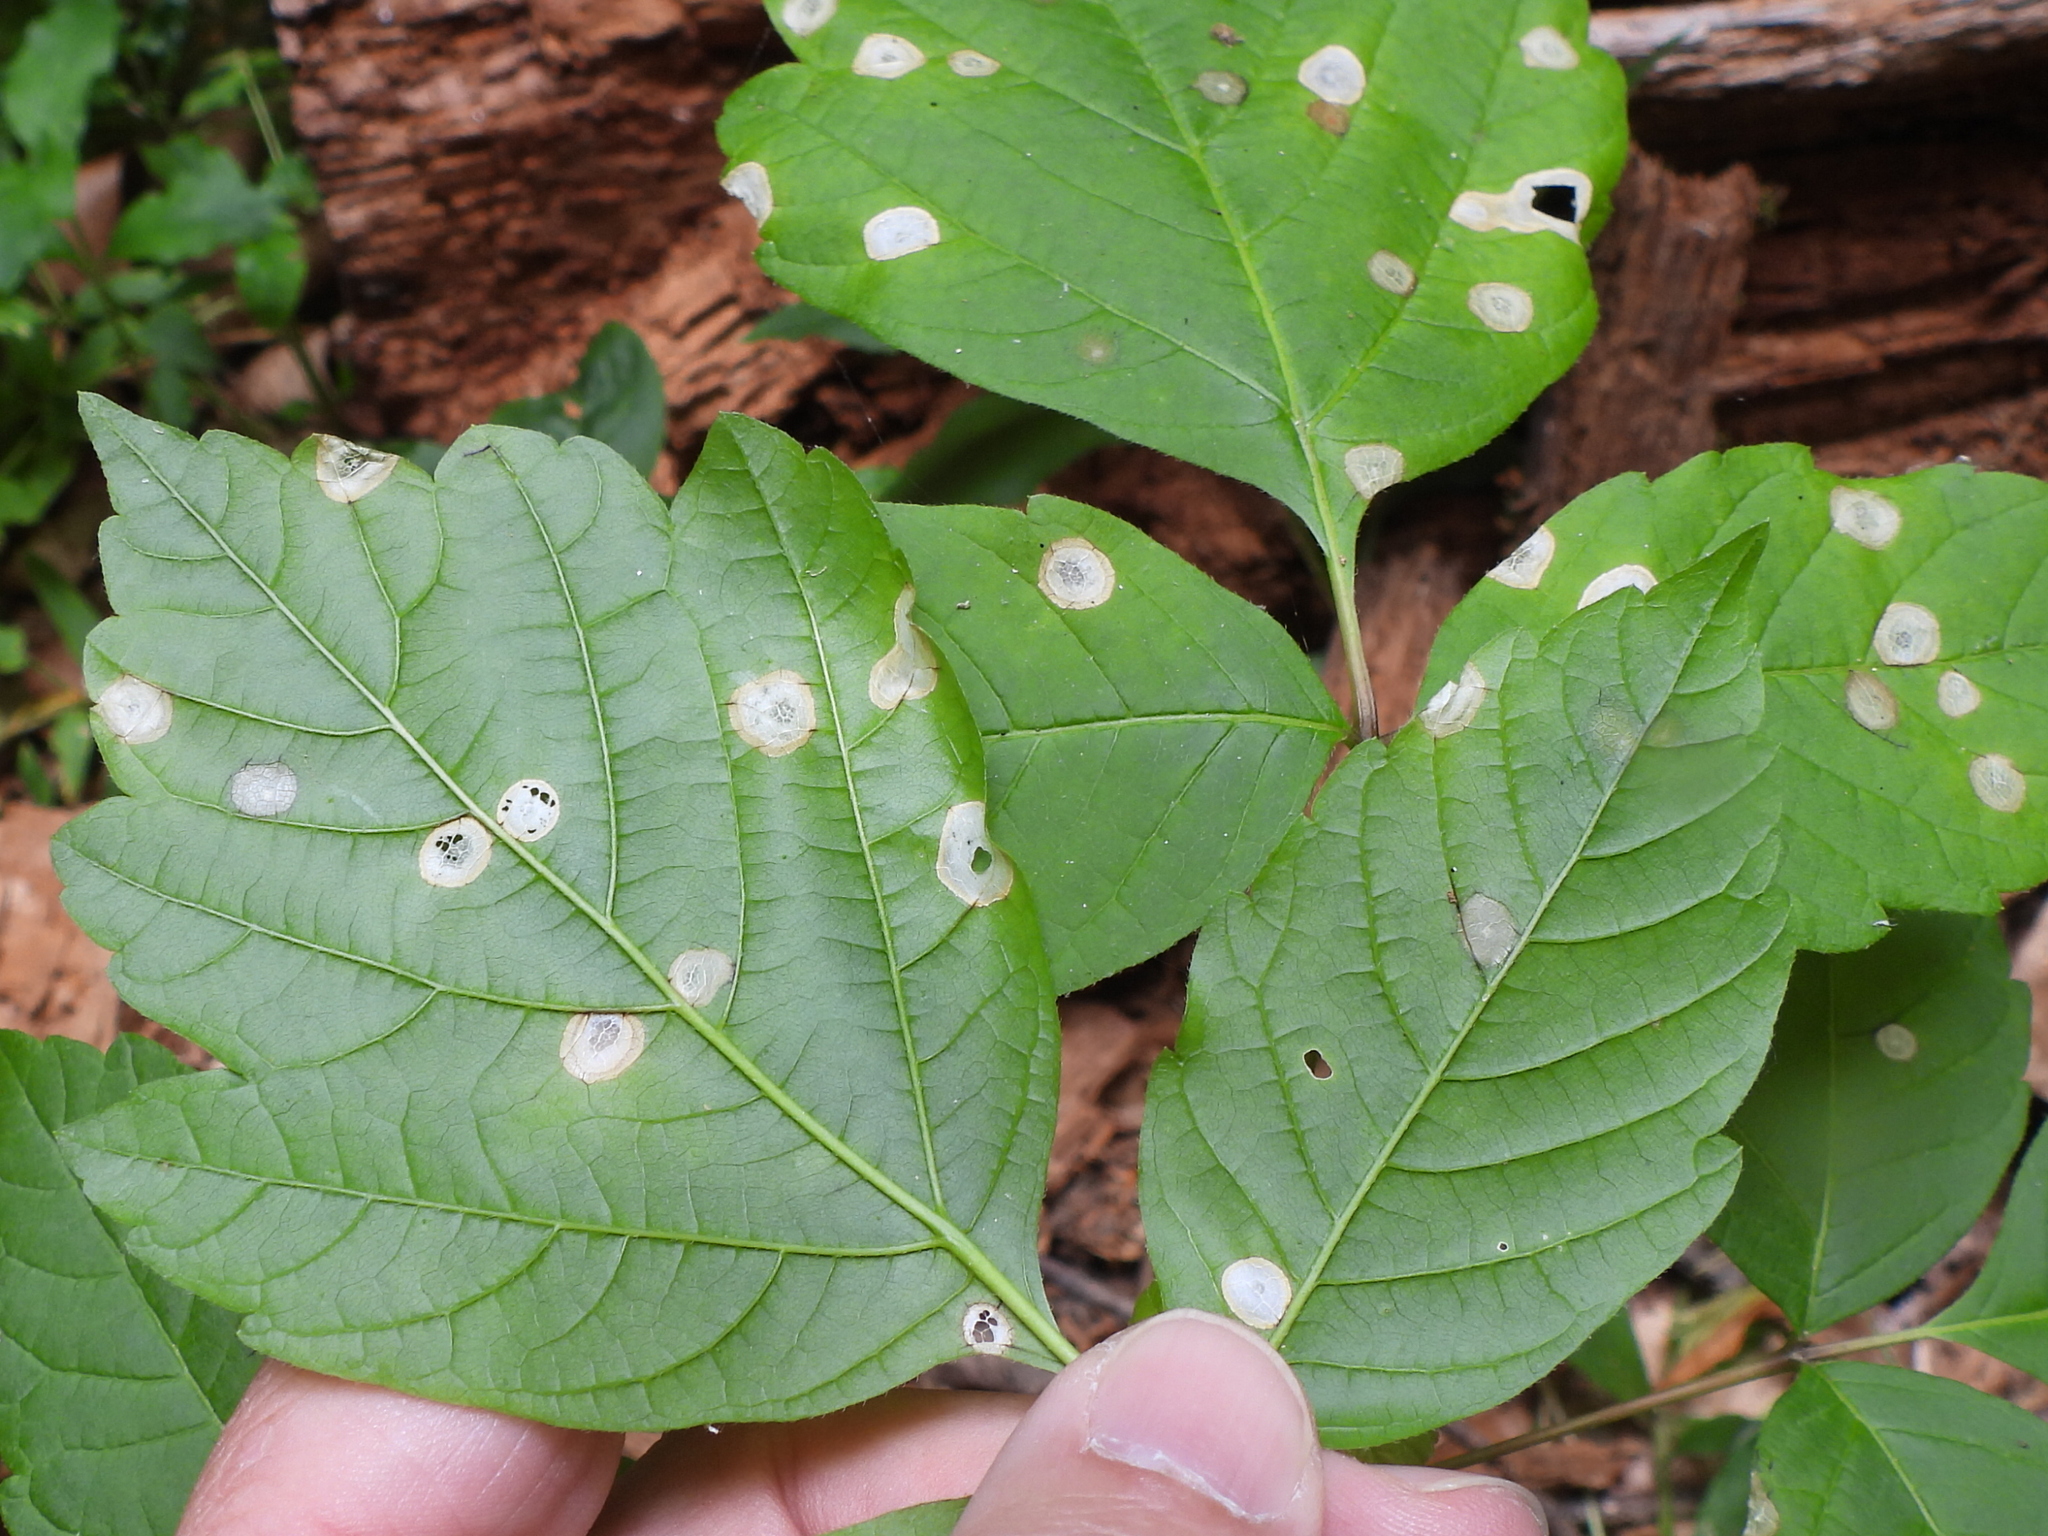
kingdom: Animalia
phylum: Arthropoda
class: Arachnida
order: Trombidiformes
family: Eriophyidae
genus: Aceria
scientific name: Aceria
